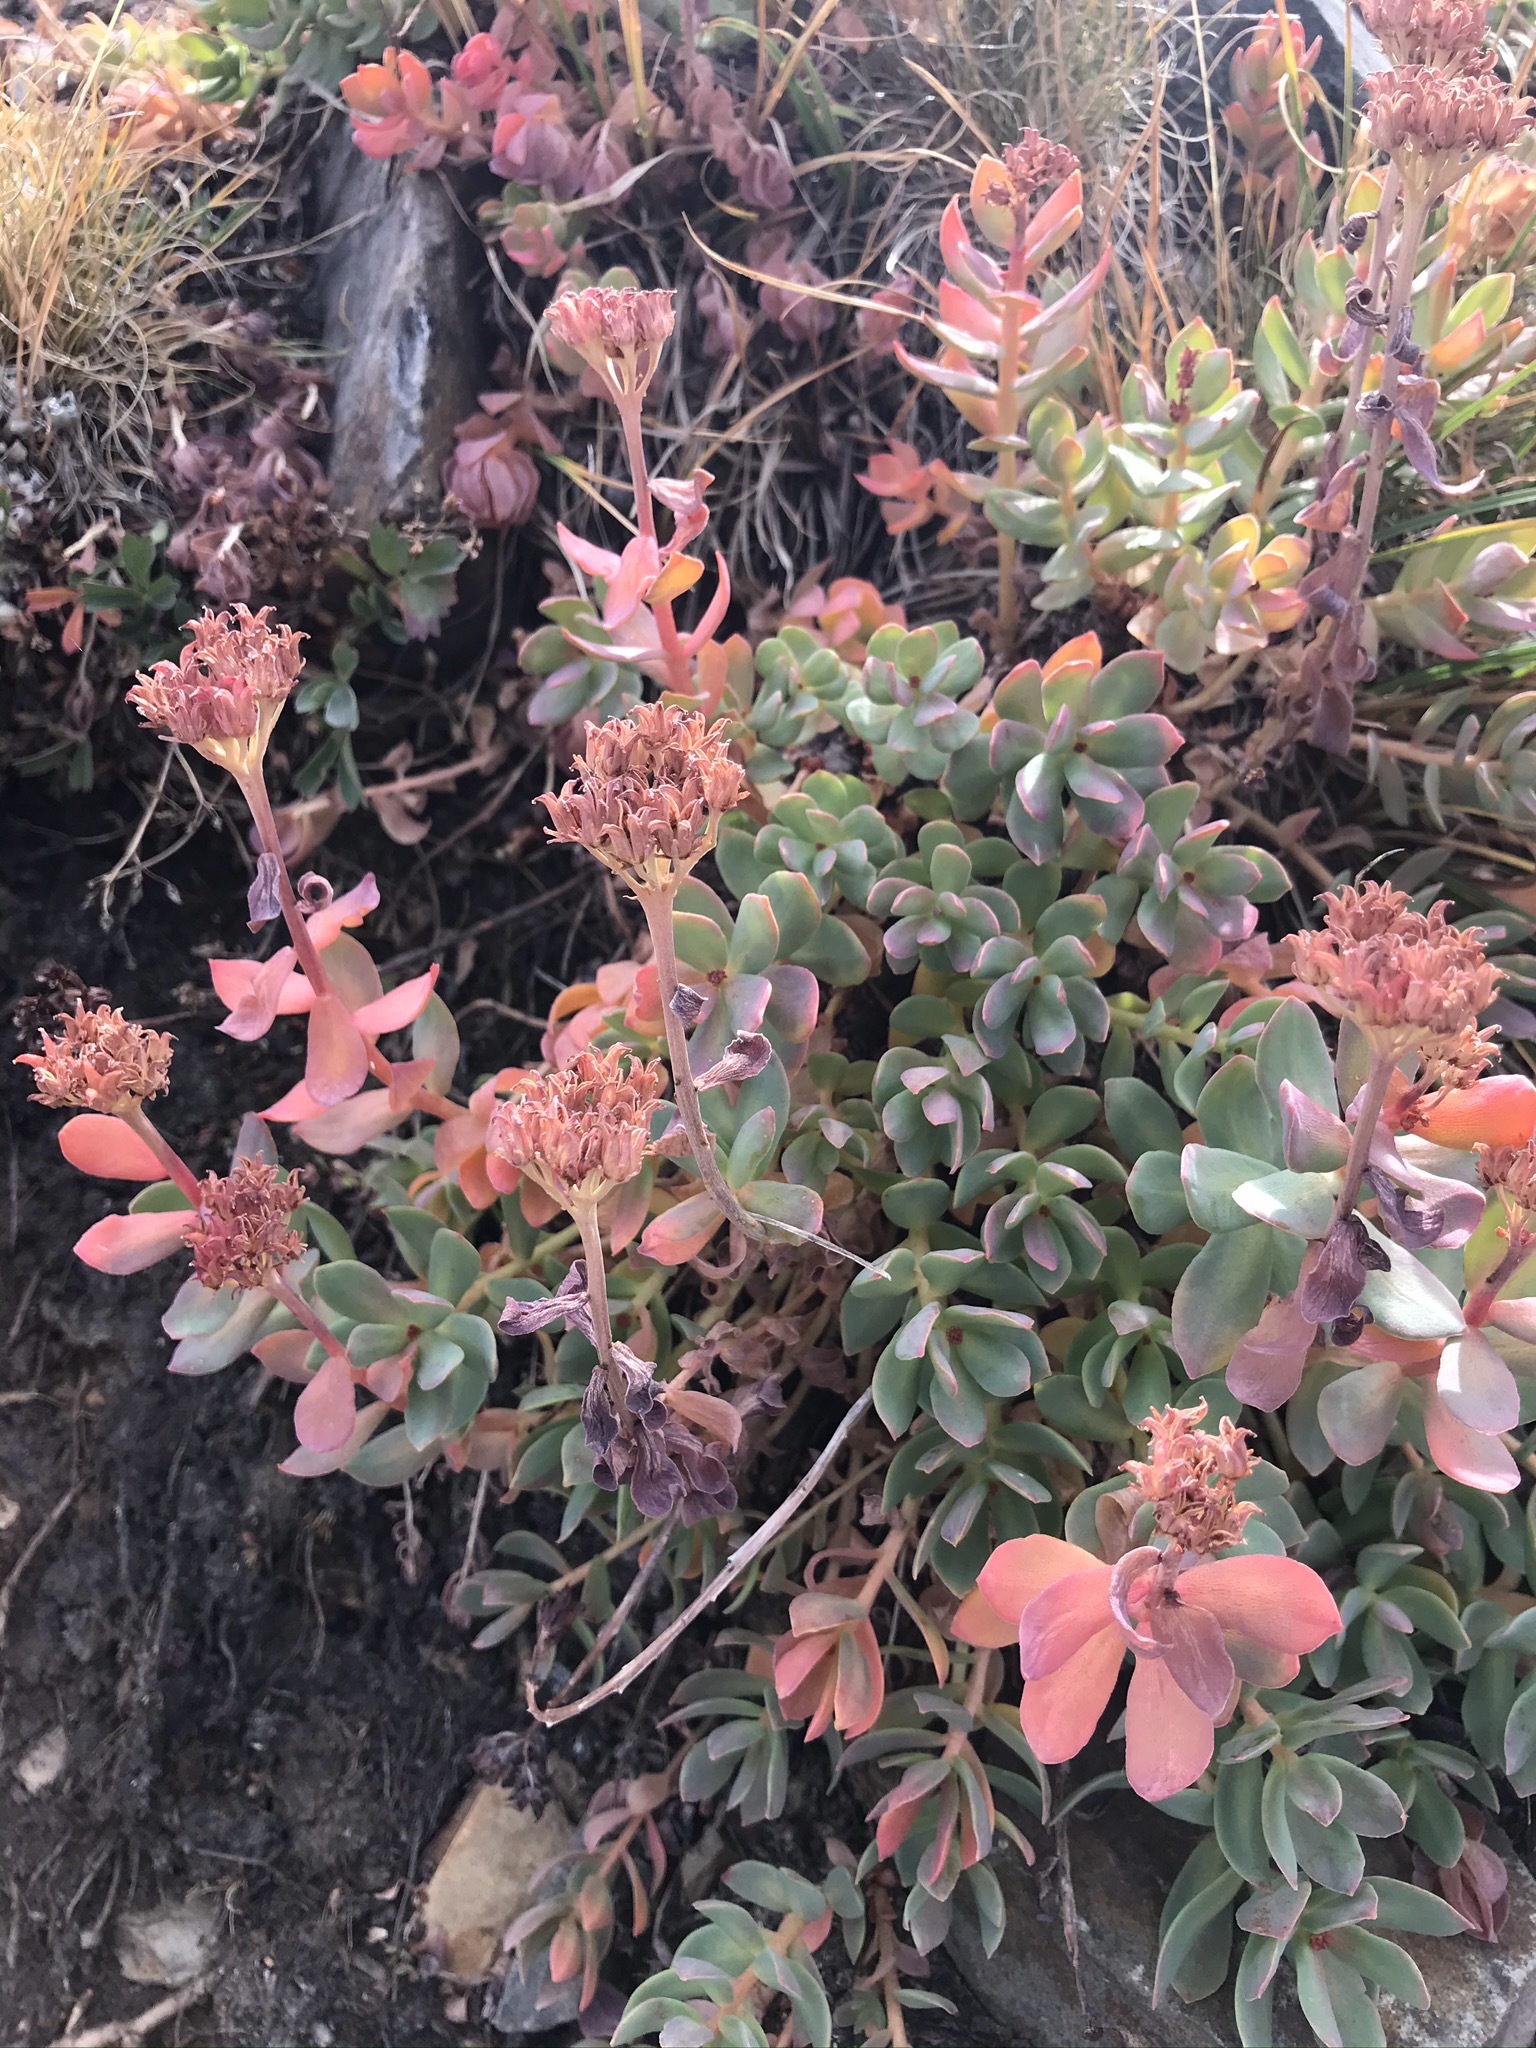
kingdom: Plantae
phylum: Tracheophyta
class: Magnoliopsida
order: Saxifragales
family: Crassulaceae
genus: Rhodiola
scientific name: Rhodiola integrifolia
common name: Western roseroot
